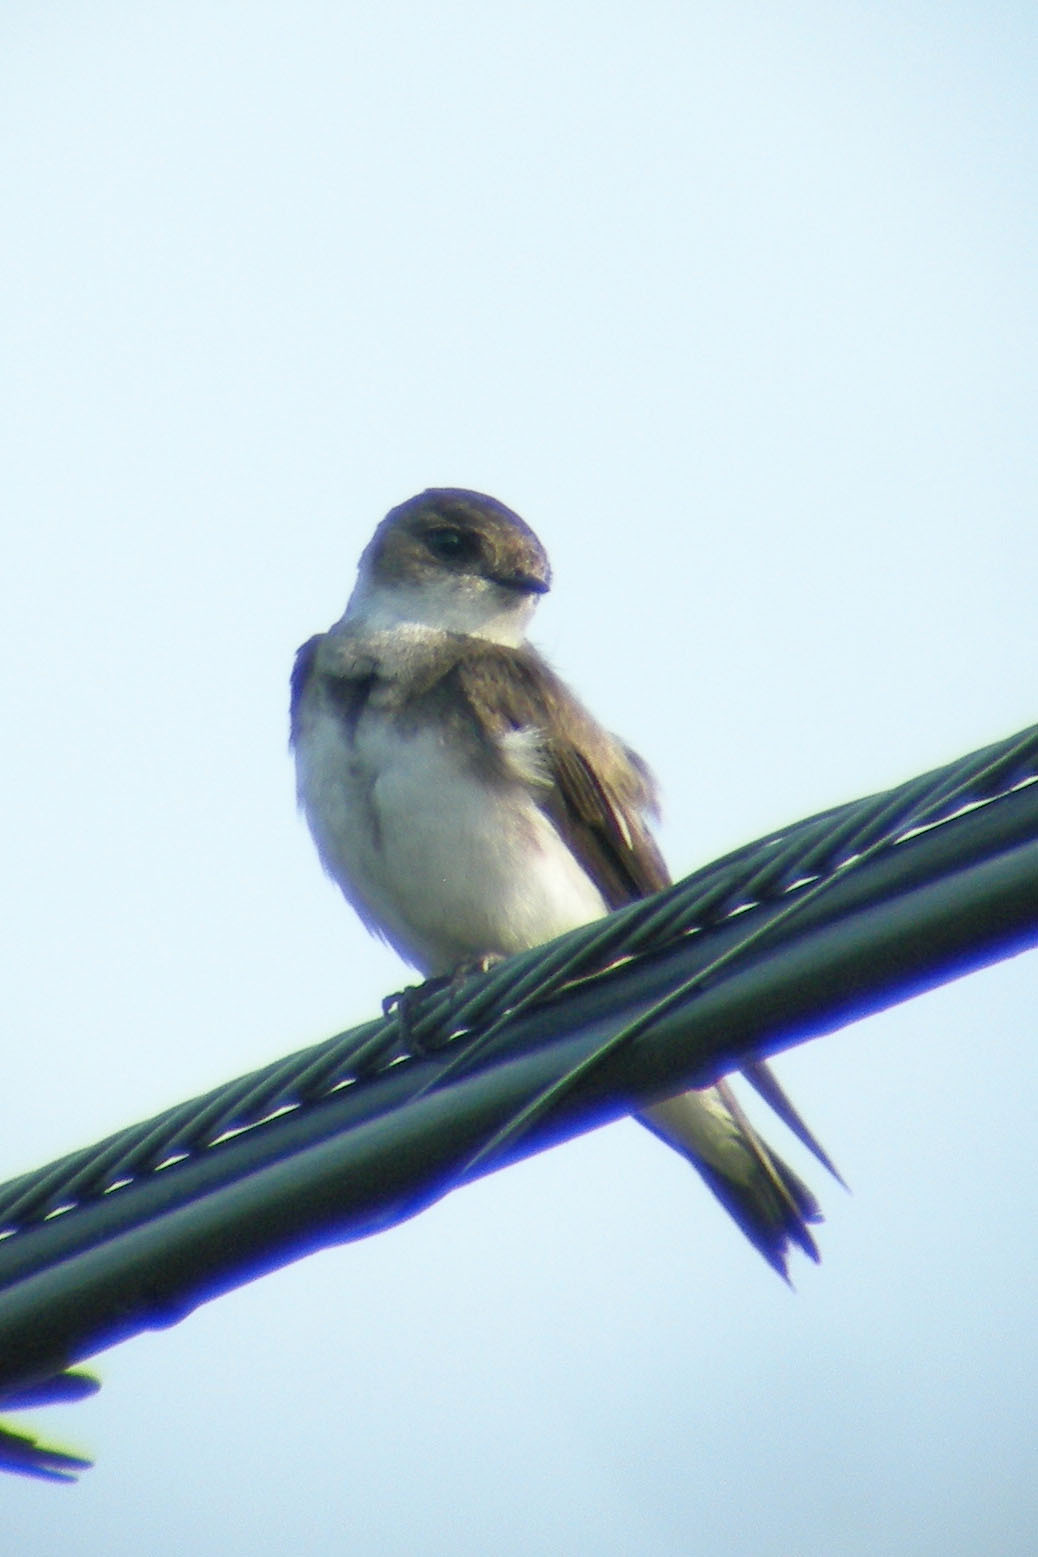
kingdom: Animalia
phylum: Chordata
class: Aves
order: Passeriformes
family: Hirundinidae
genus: Riparia
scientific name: Riparia riparia
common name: Sand martin
